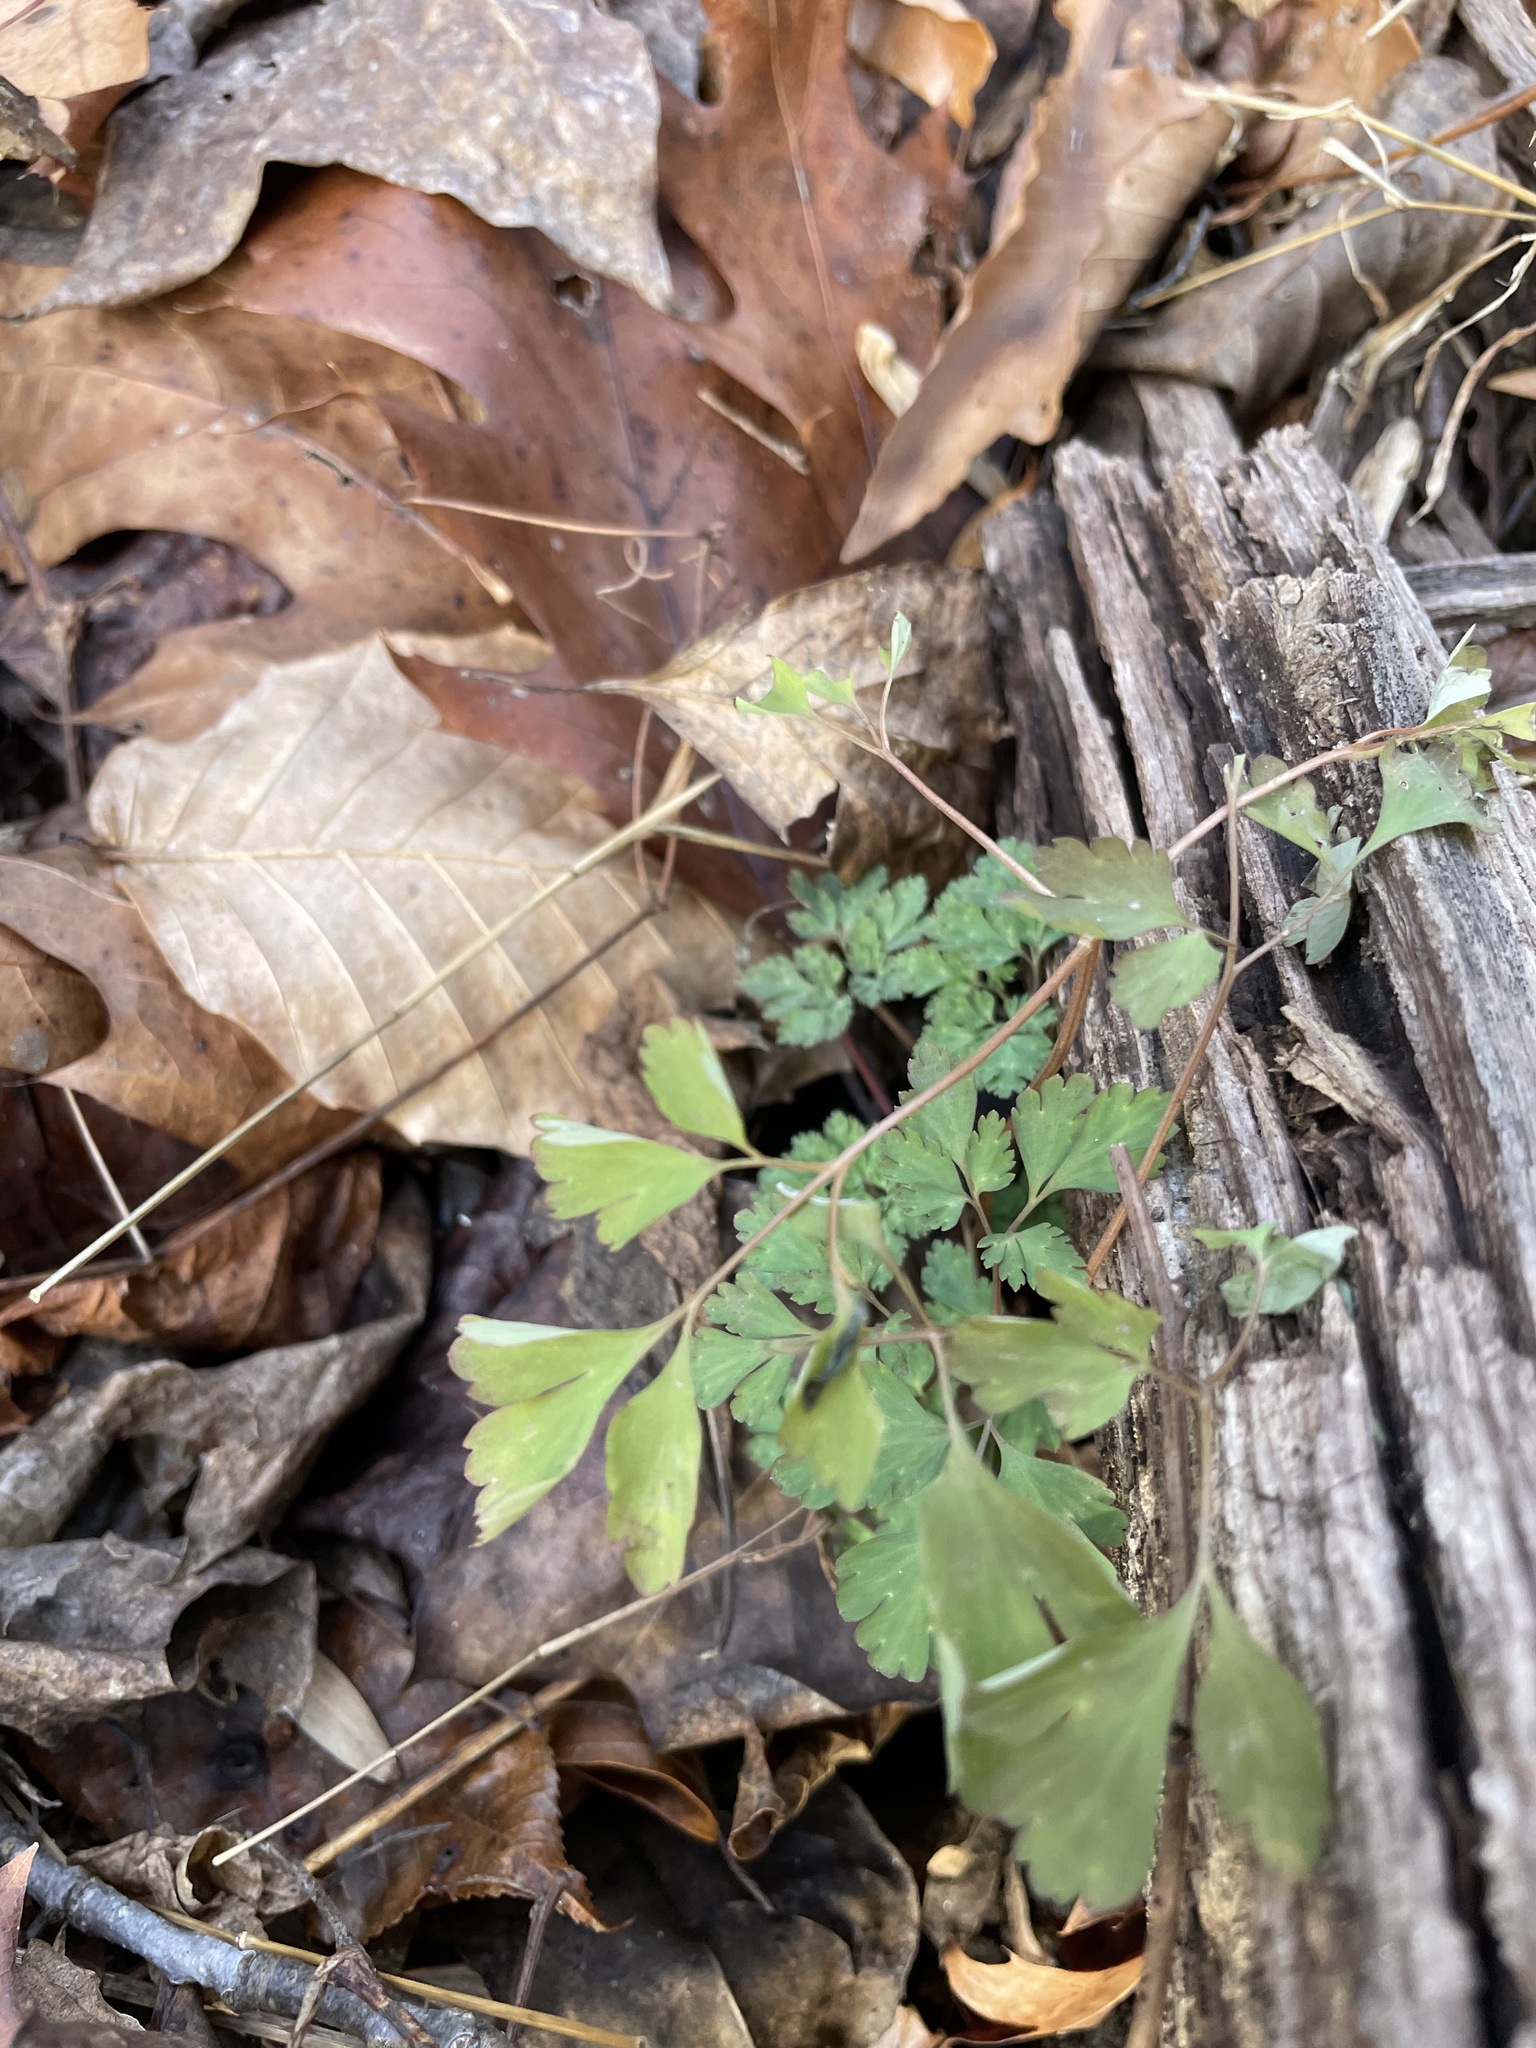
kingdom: Plantae
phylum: Tracheophyta
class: Magnoliopsida
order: Ranunculales
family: Papaveraceae
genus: Corydalis
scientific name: Corydalis incisa
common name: Incised fumewort
